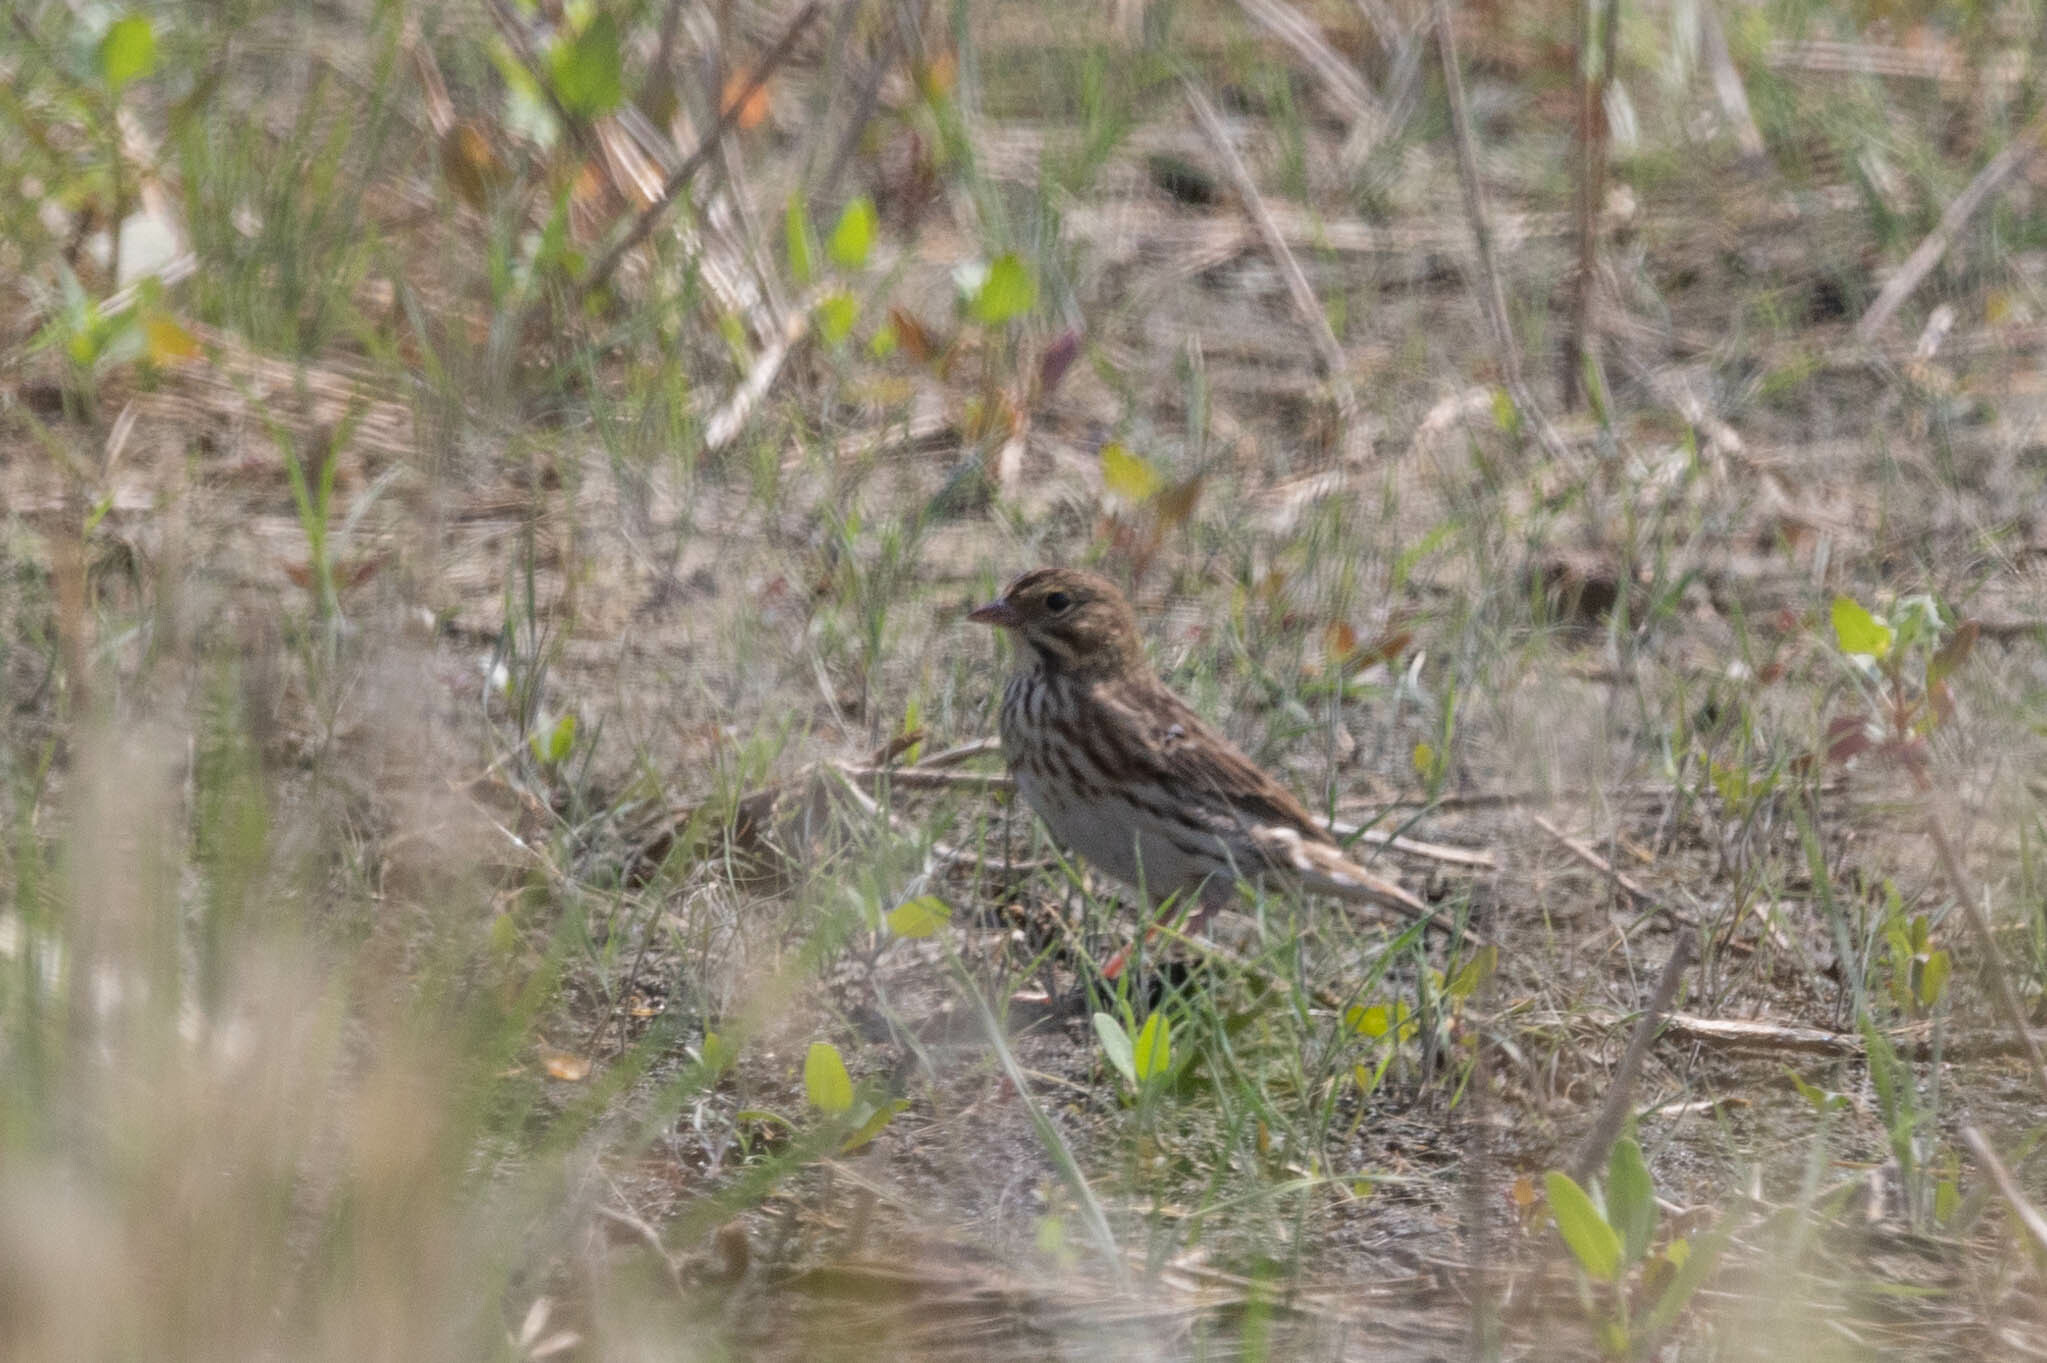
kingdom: Animalia
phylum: Chordata
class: Aves
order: Passeriformes
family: Passerellidae
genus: Passerculus
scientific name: Passerculus sandwichensis
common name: Savannah sparrow
